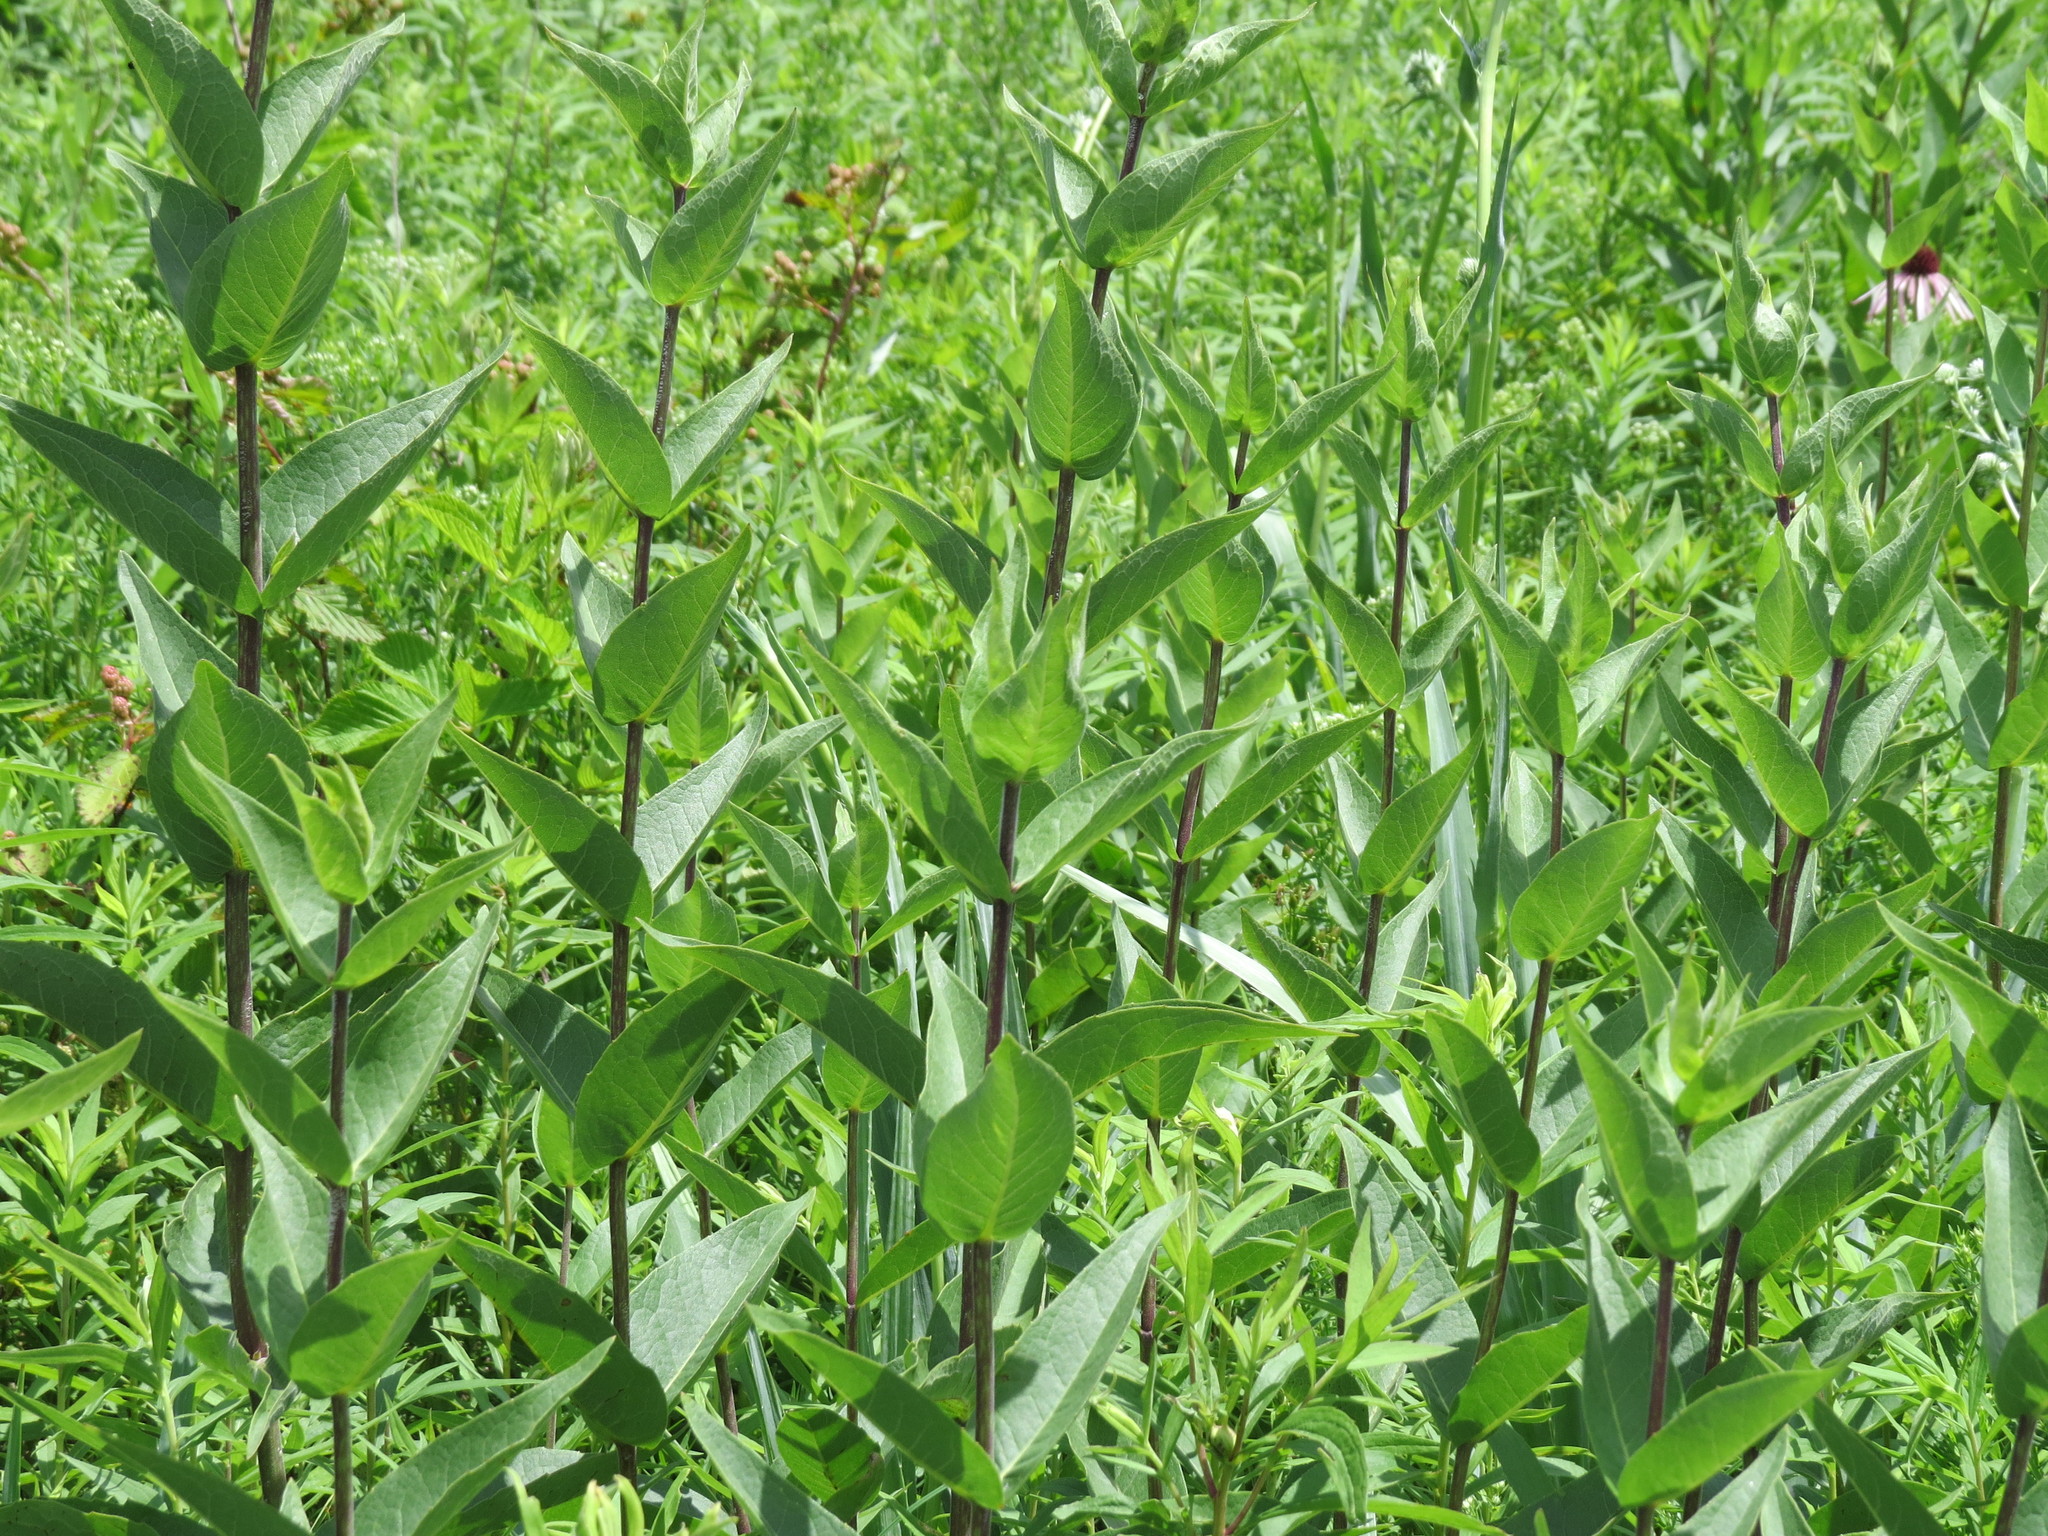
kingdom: Plantae
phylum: Tracheophyta
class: Magnoliopsida
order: Asterales
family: Asteraceae
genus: Silphium
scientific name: Silphium integrifolium
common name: Whole-leaf rosinweed
